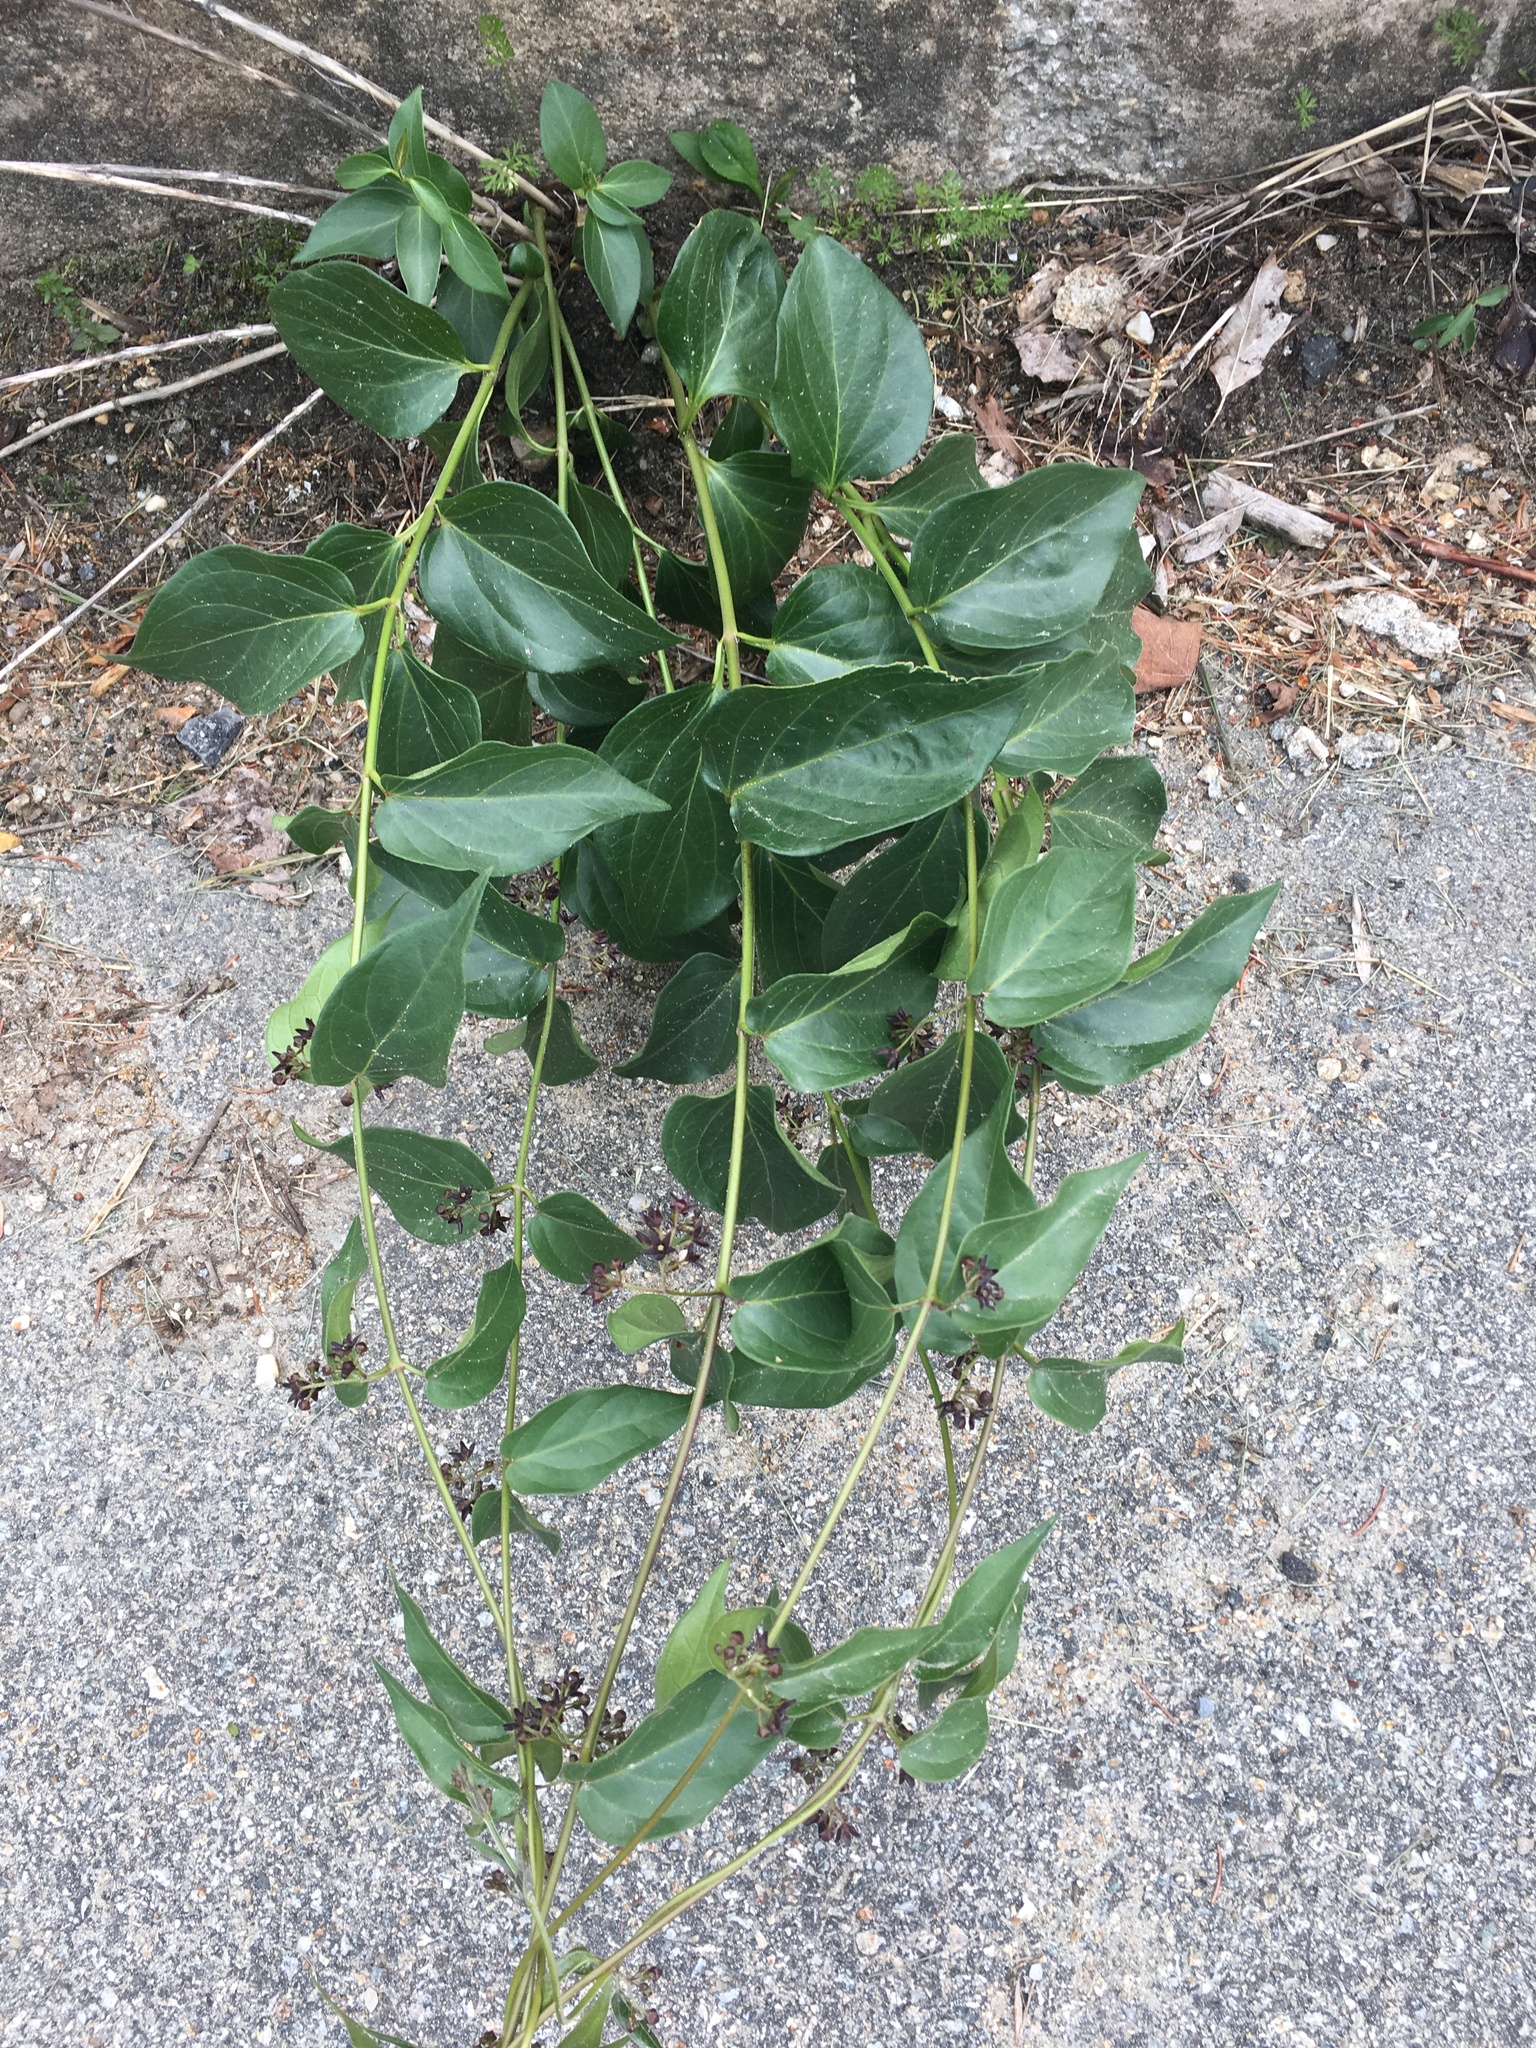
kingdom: Plantae
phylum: Tracheophyta
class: Magnoliopsida
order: Gentianales
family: Apocynaceae
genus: Vincetoxicum
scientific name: Vincetoxicum nigrum
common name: Black swallow-wort
